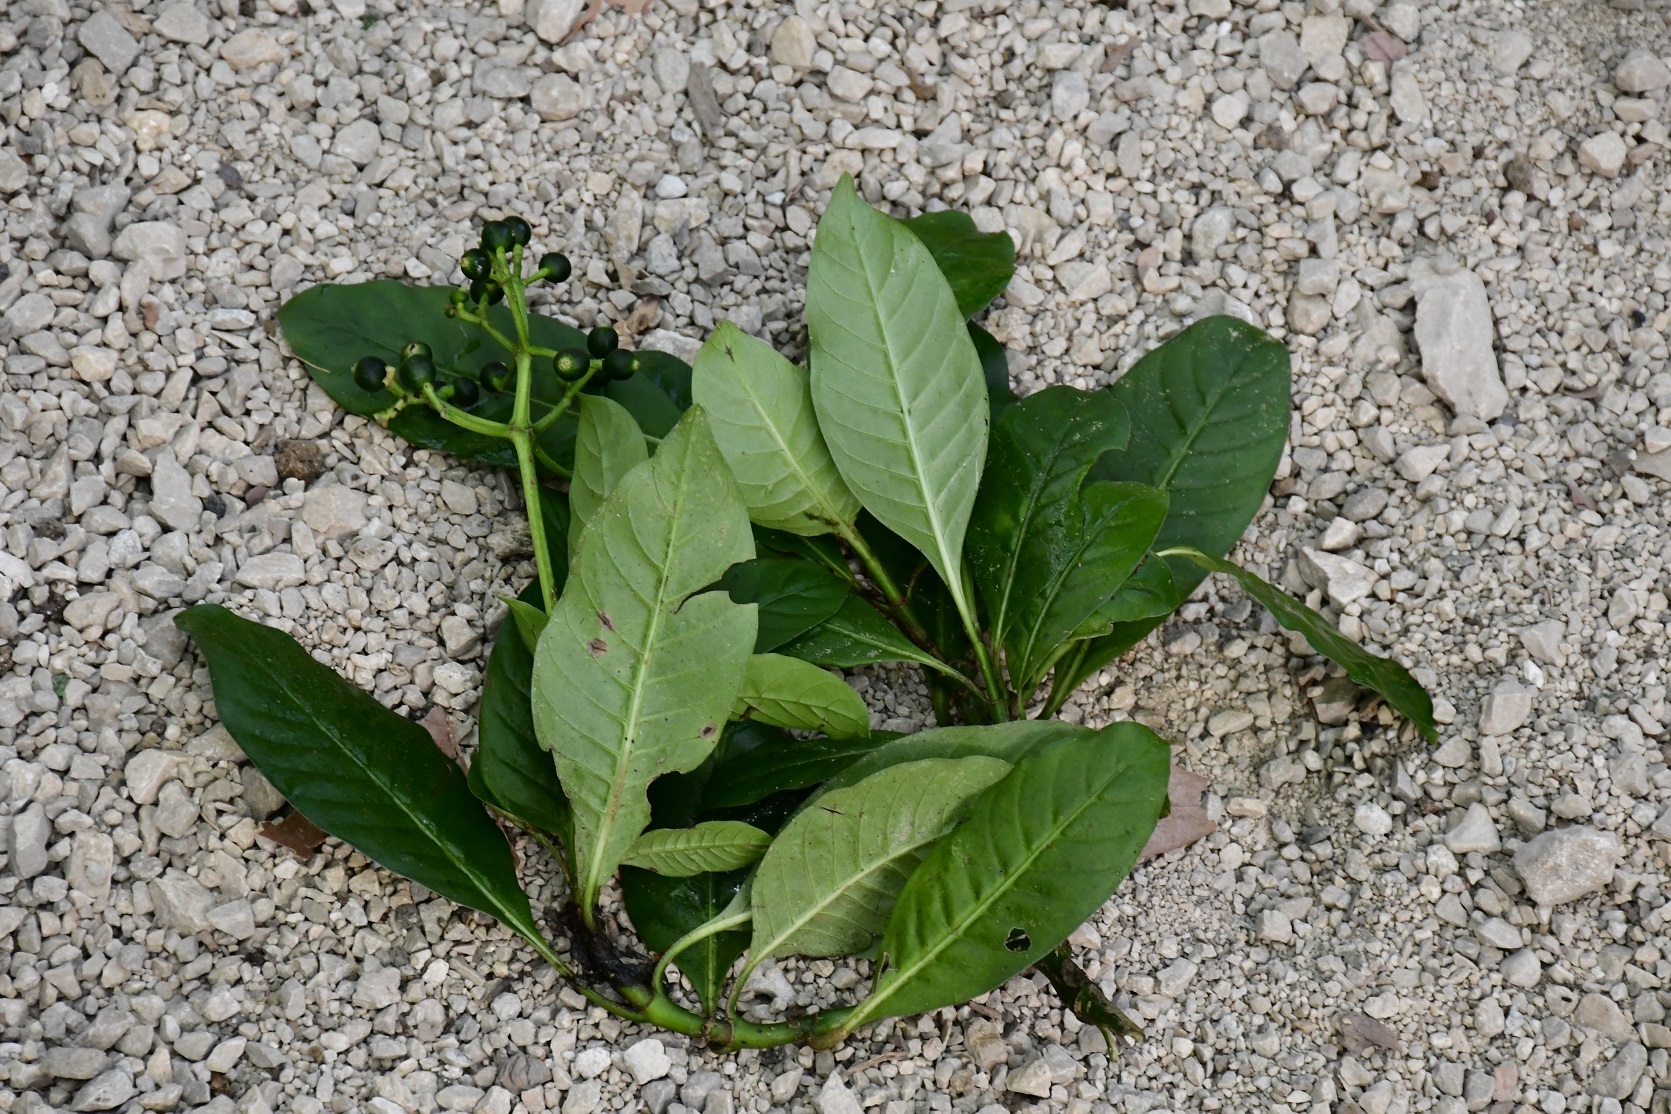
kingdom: Plantae
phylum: Tracheophyta
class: Magnoliopsida
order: Gentianales
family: Rubiaceae
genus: Psychotria
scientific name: Psychotria costivenia
